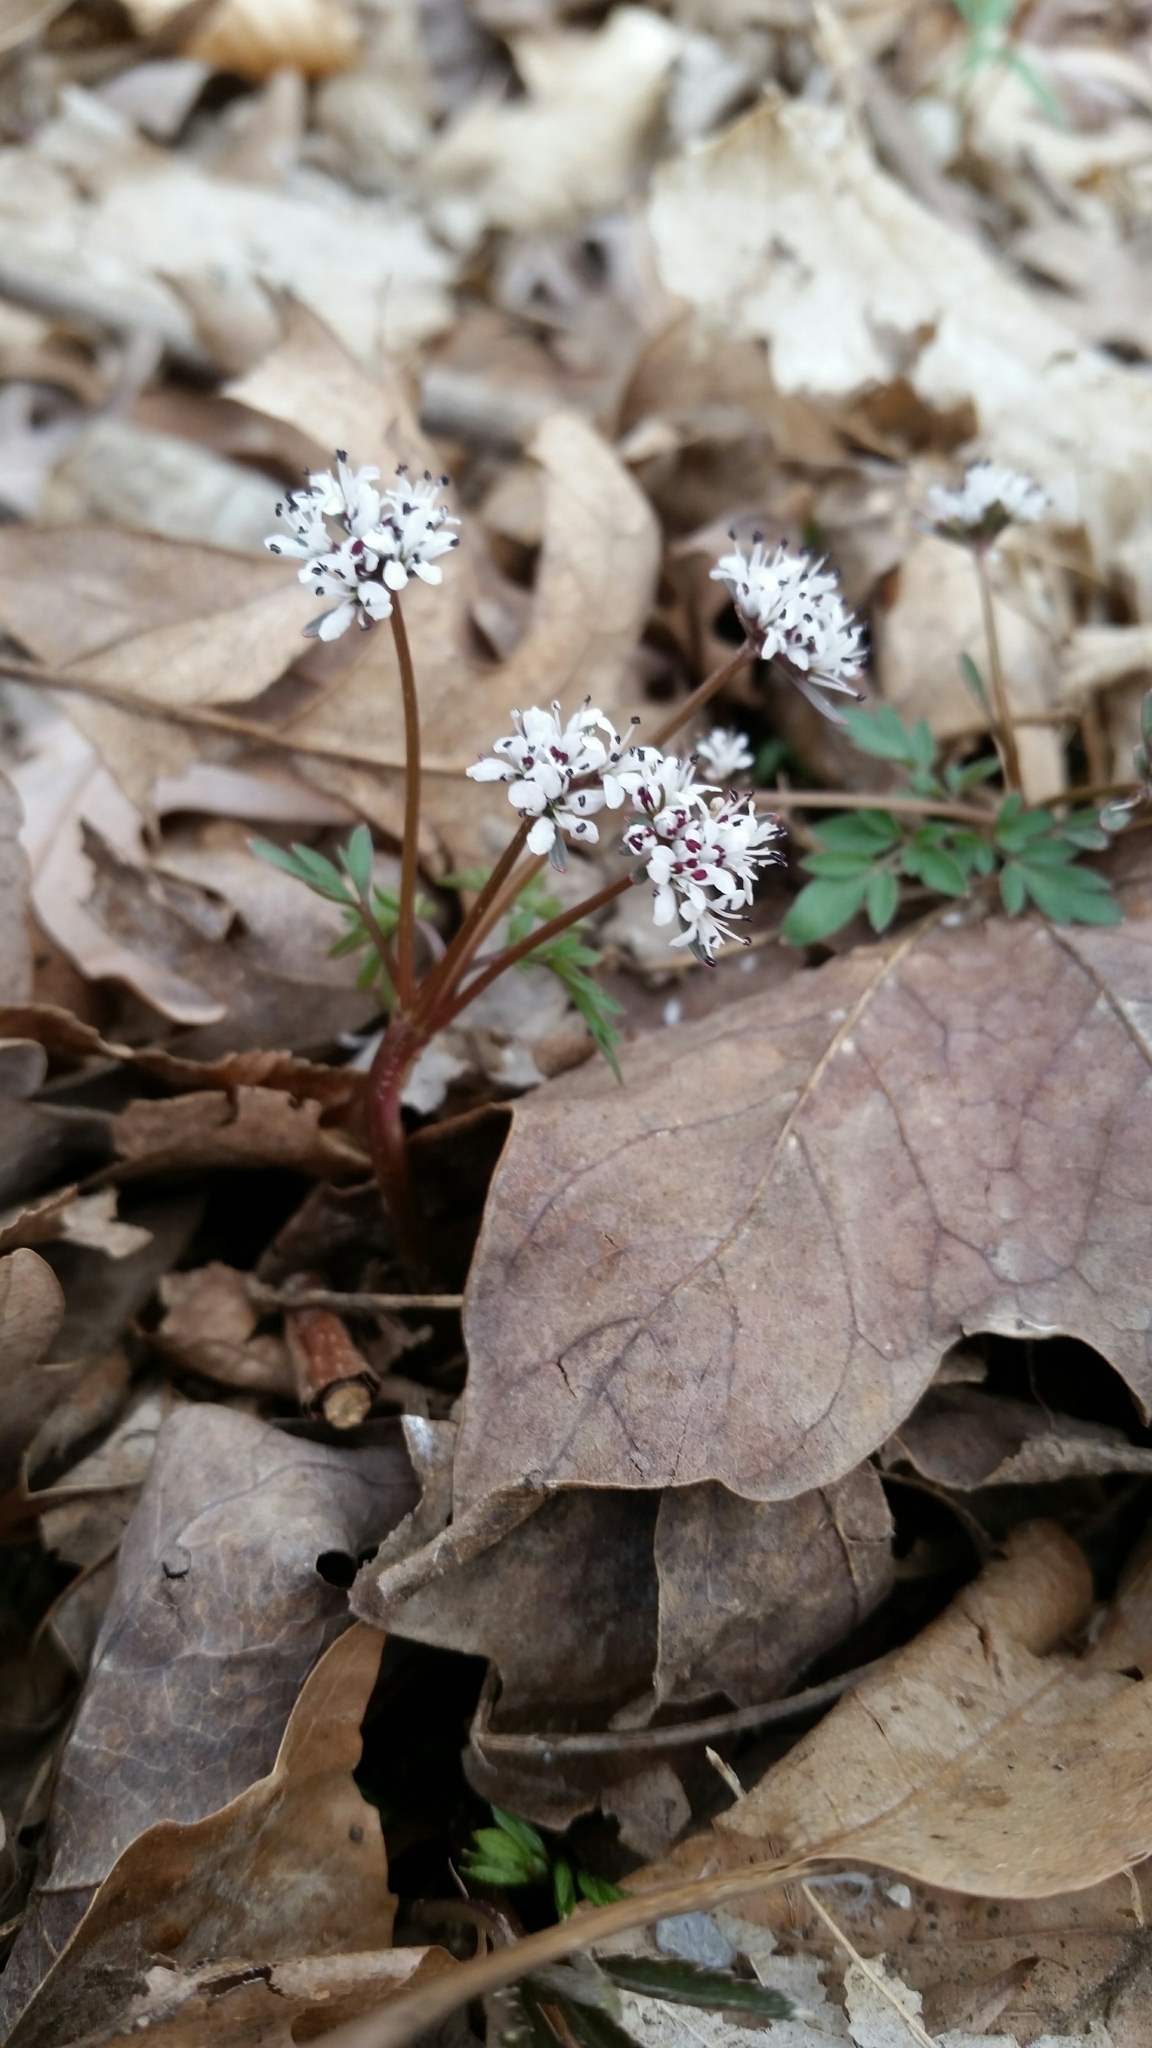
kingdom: Plantae
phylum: Tracheophyta
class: Magnoliopsida
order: Apiales
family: Apiaceae
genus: Erigenia
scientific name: Erigenia bulbosa
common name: Pepper-and-salt
